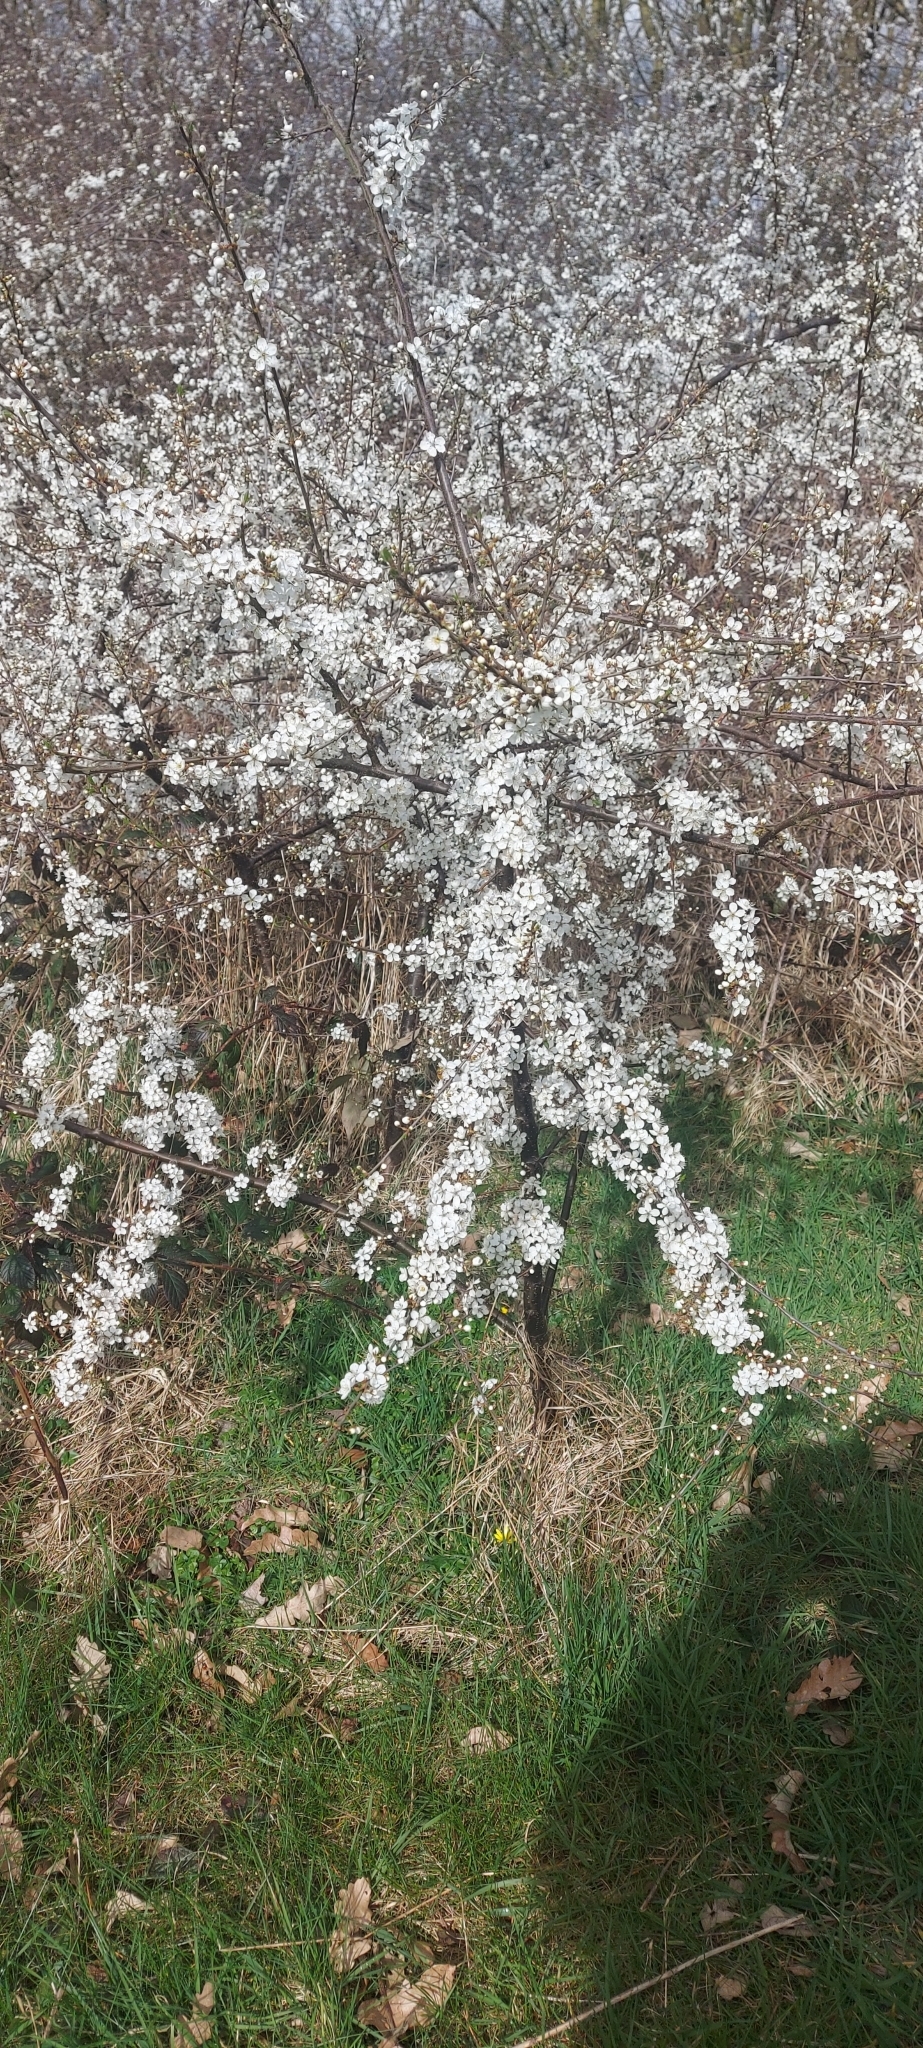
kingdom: Plantae
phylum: Tracheophyta
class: Magnoliopsida
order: Rosales
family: Rosaceae
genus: Prunus
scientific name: Prunus spinosa
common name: Blackthorn
